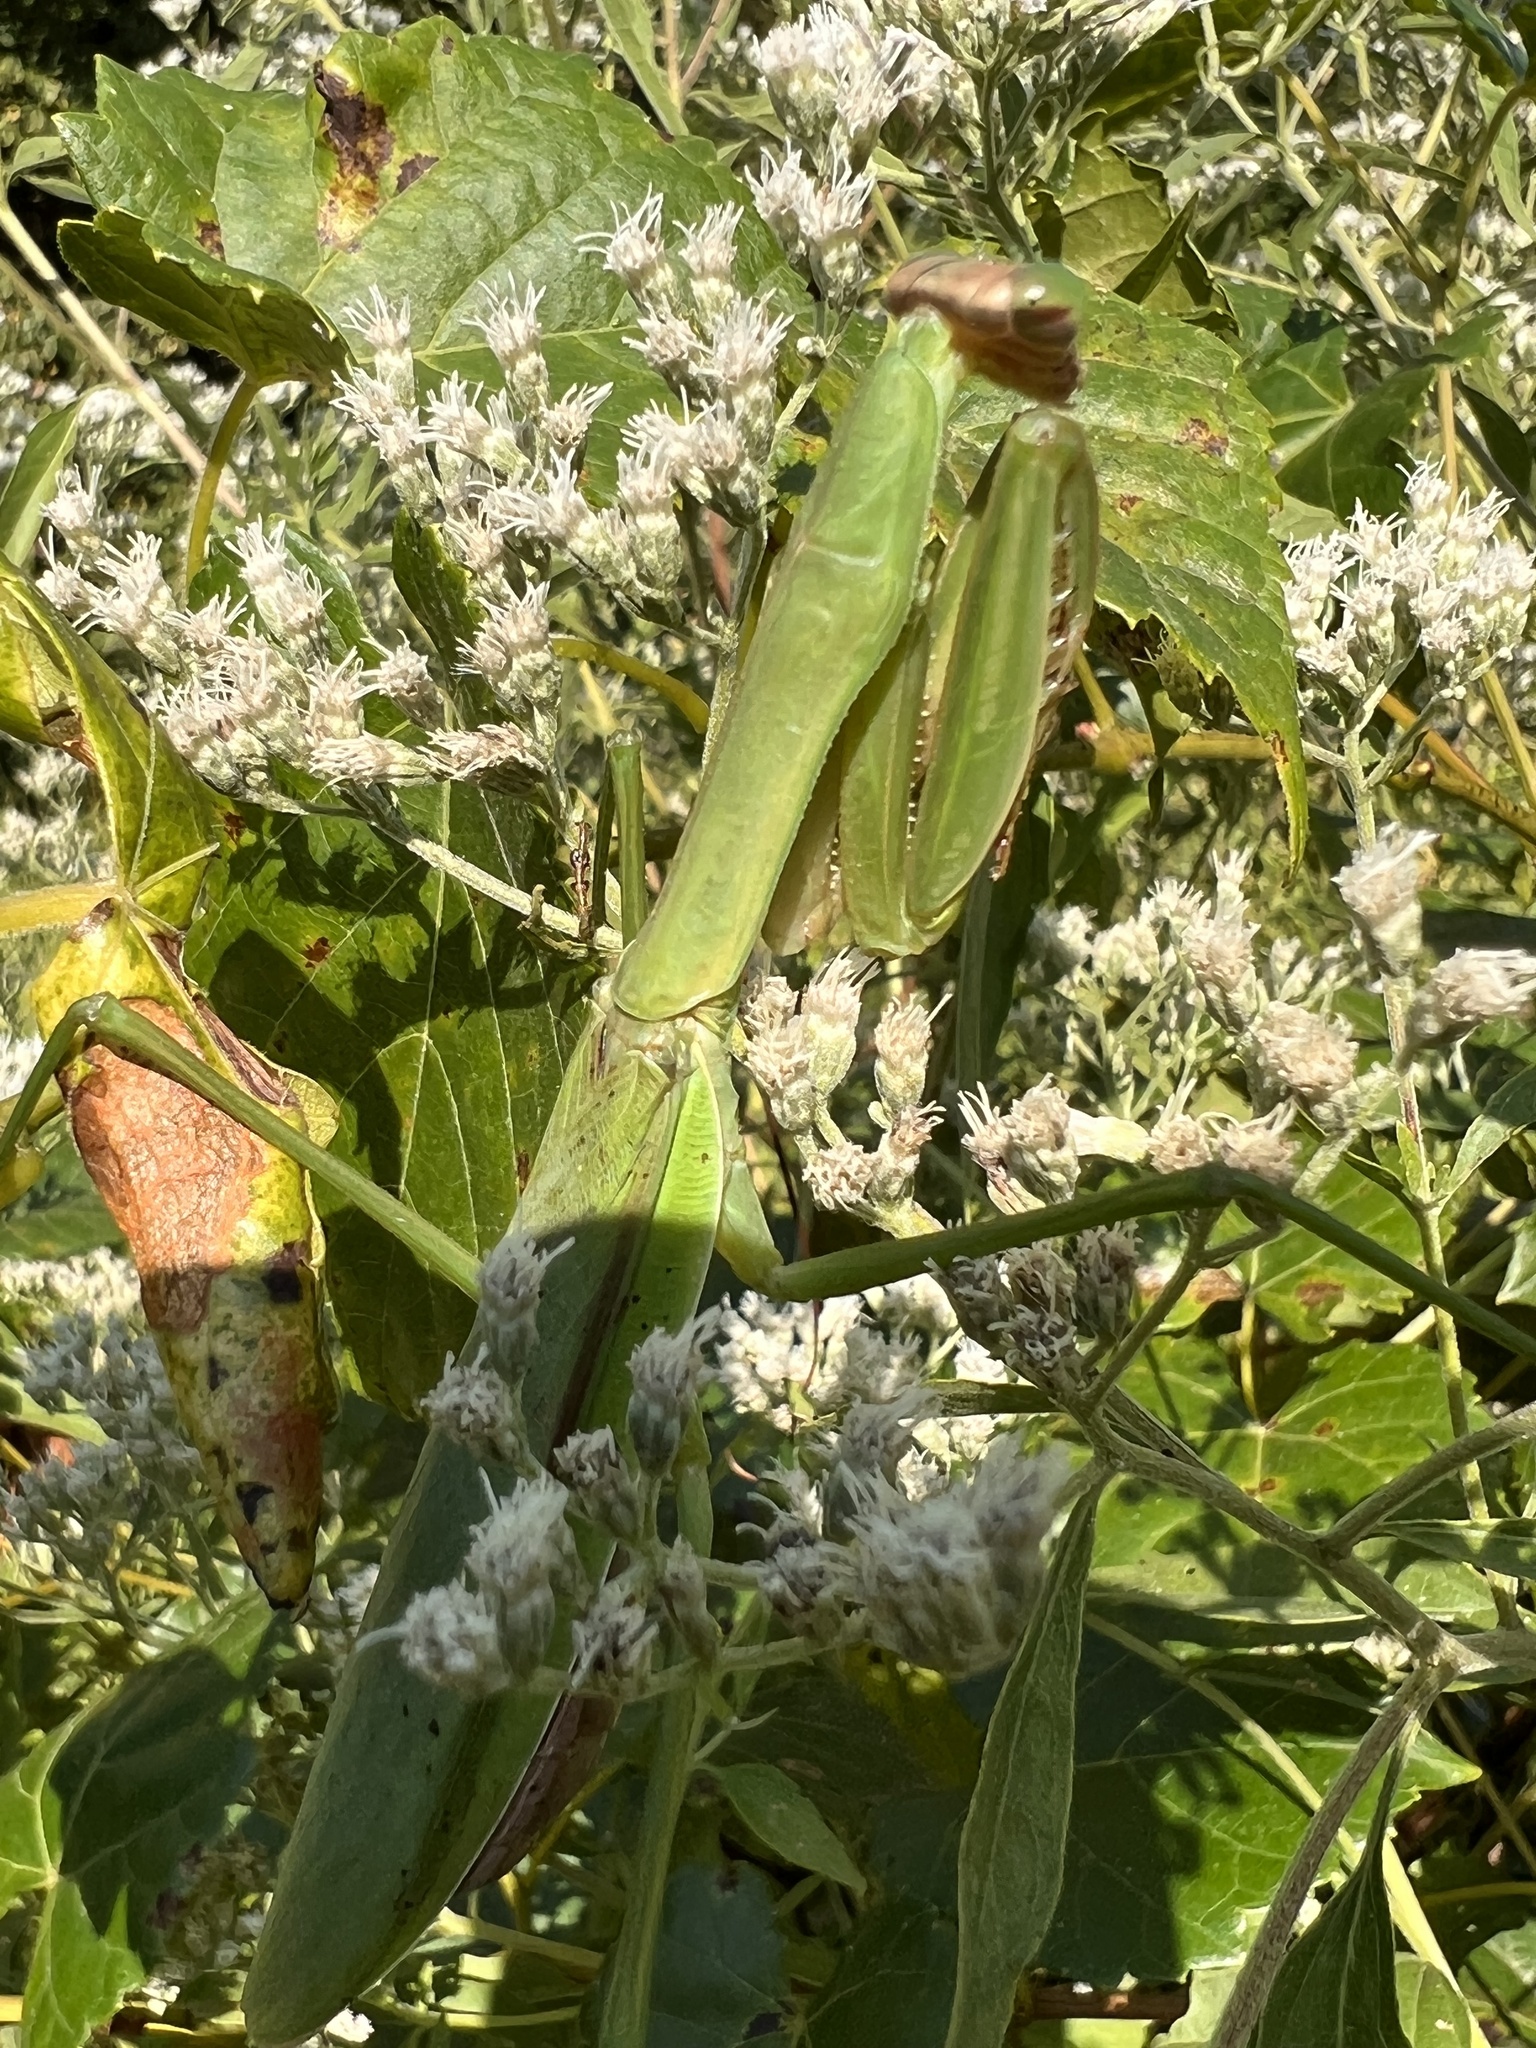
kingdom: Animalia
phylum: Arthropoda
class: Insecta
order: Mantodea
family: Mantidae
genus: Tenodera
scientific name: Tenodera sinensis
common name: Chinese mantis
